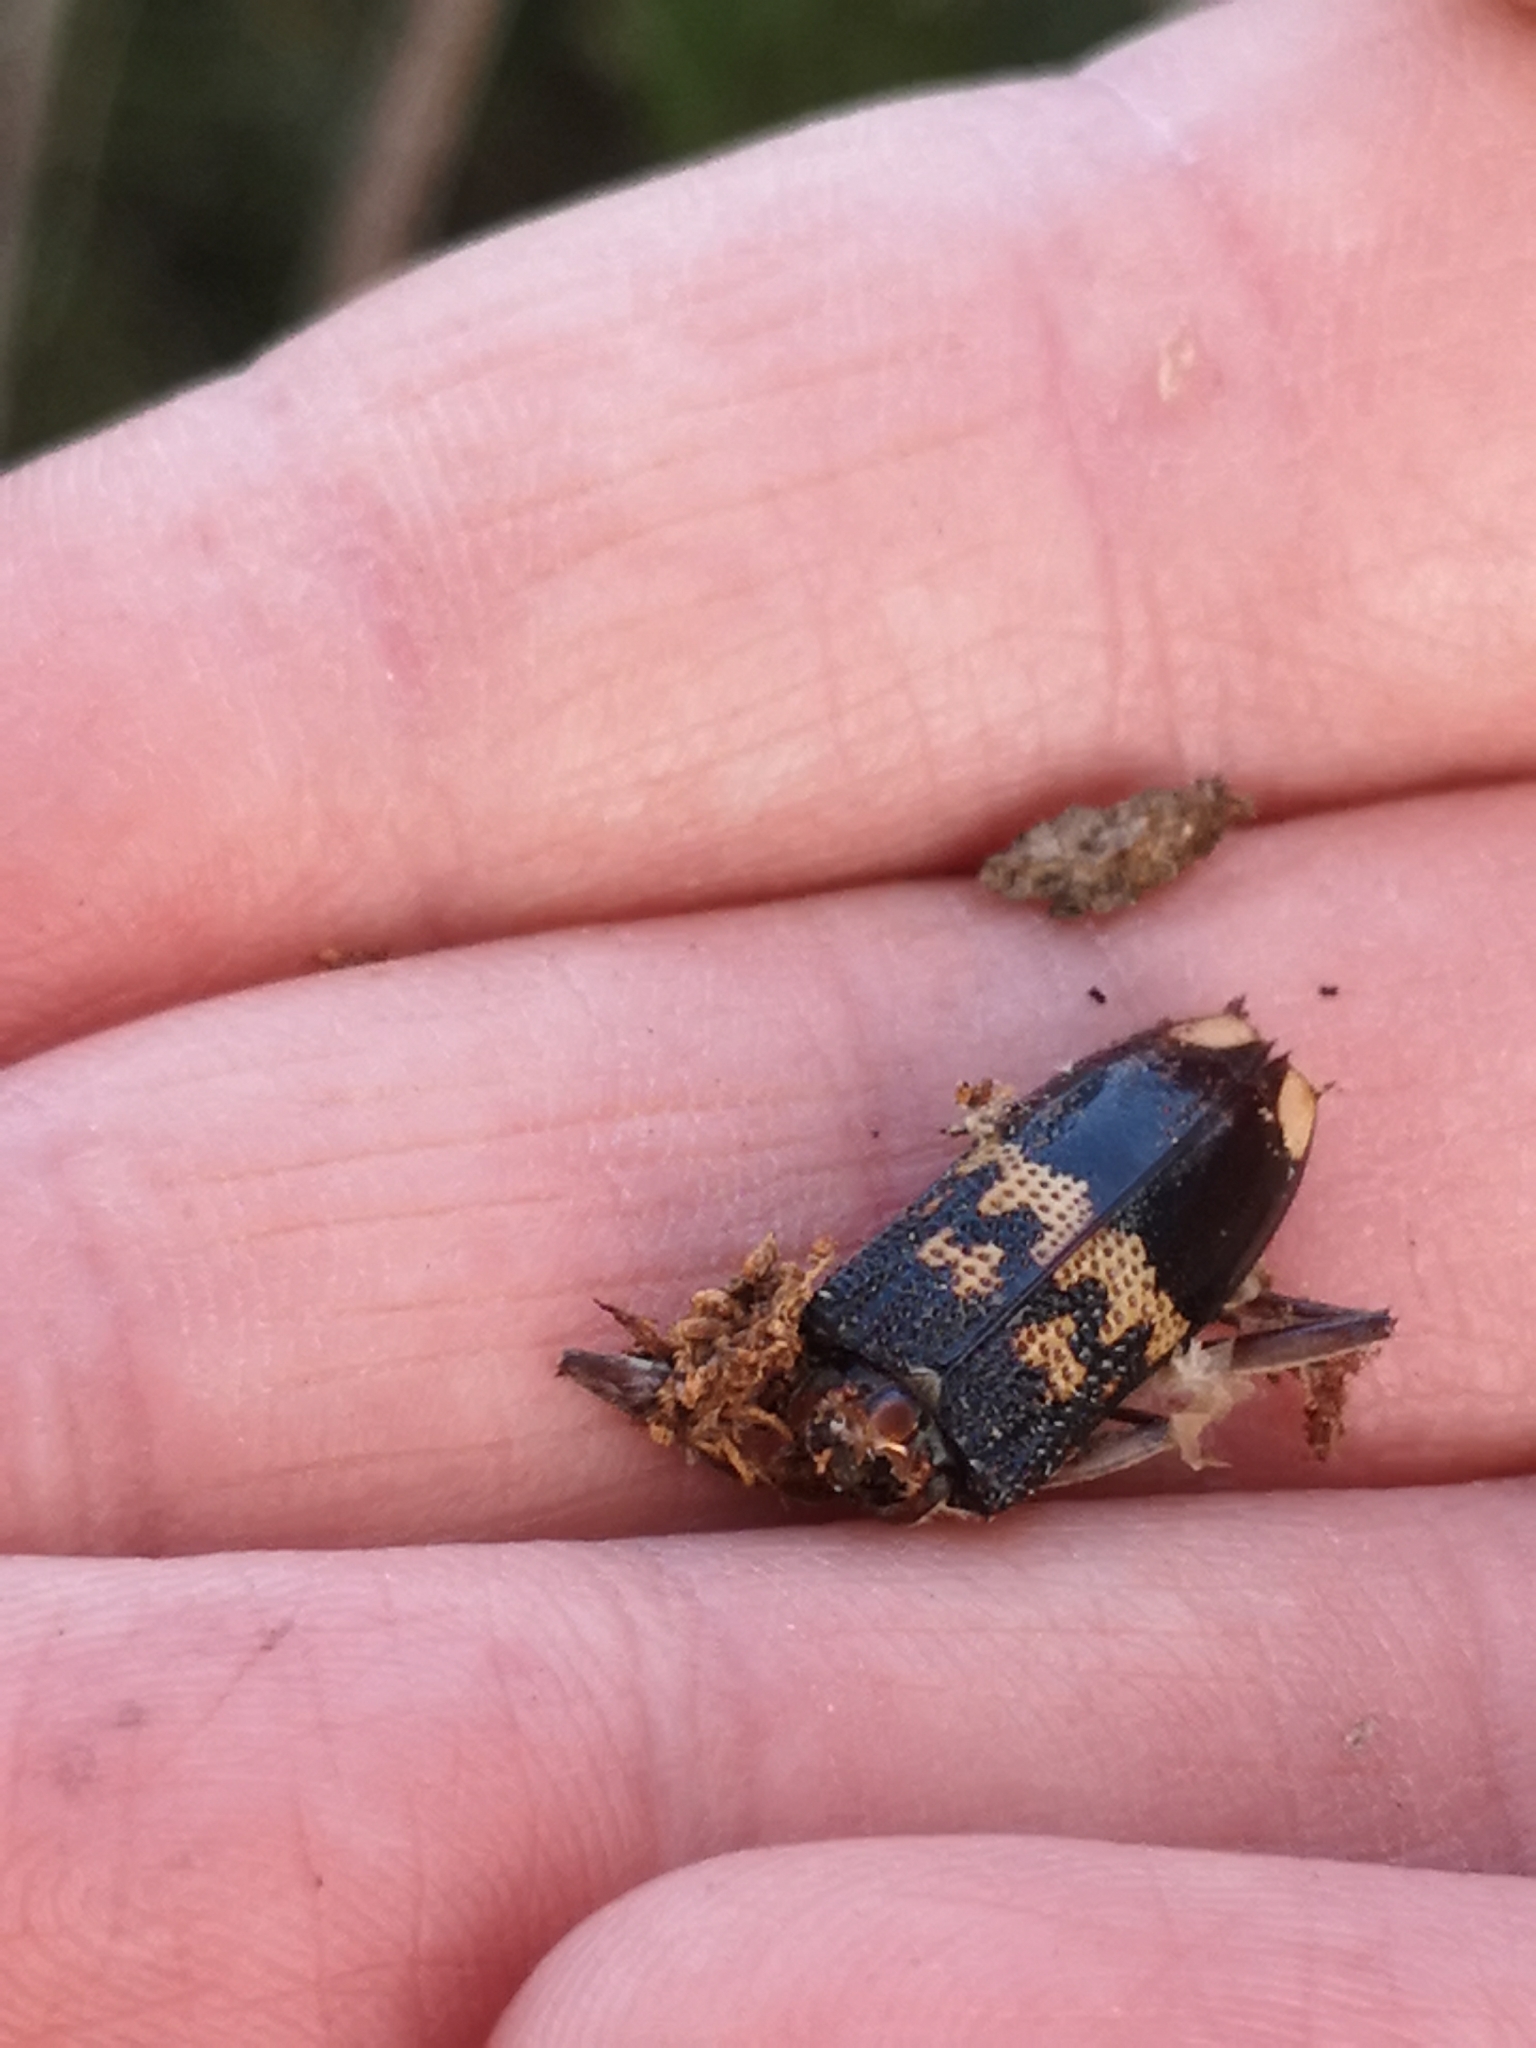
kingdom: Animalia
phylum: Arthropoda
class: Insecta
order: Coleoptera
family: Cerambycidae
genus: Phoracantha
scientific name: Phoracantha semipunctata
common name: Eucalyptus longhorn borer
